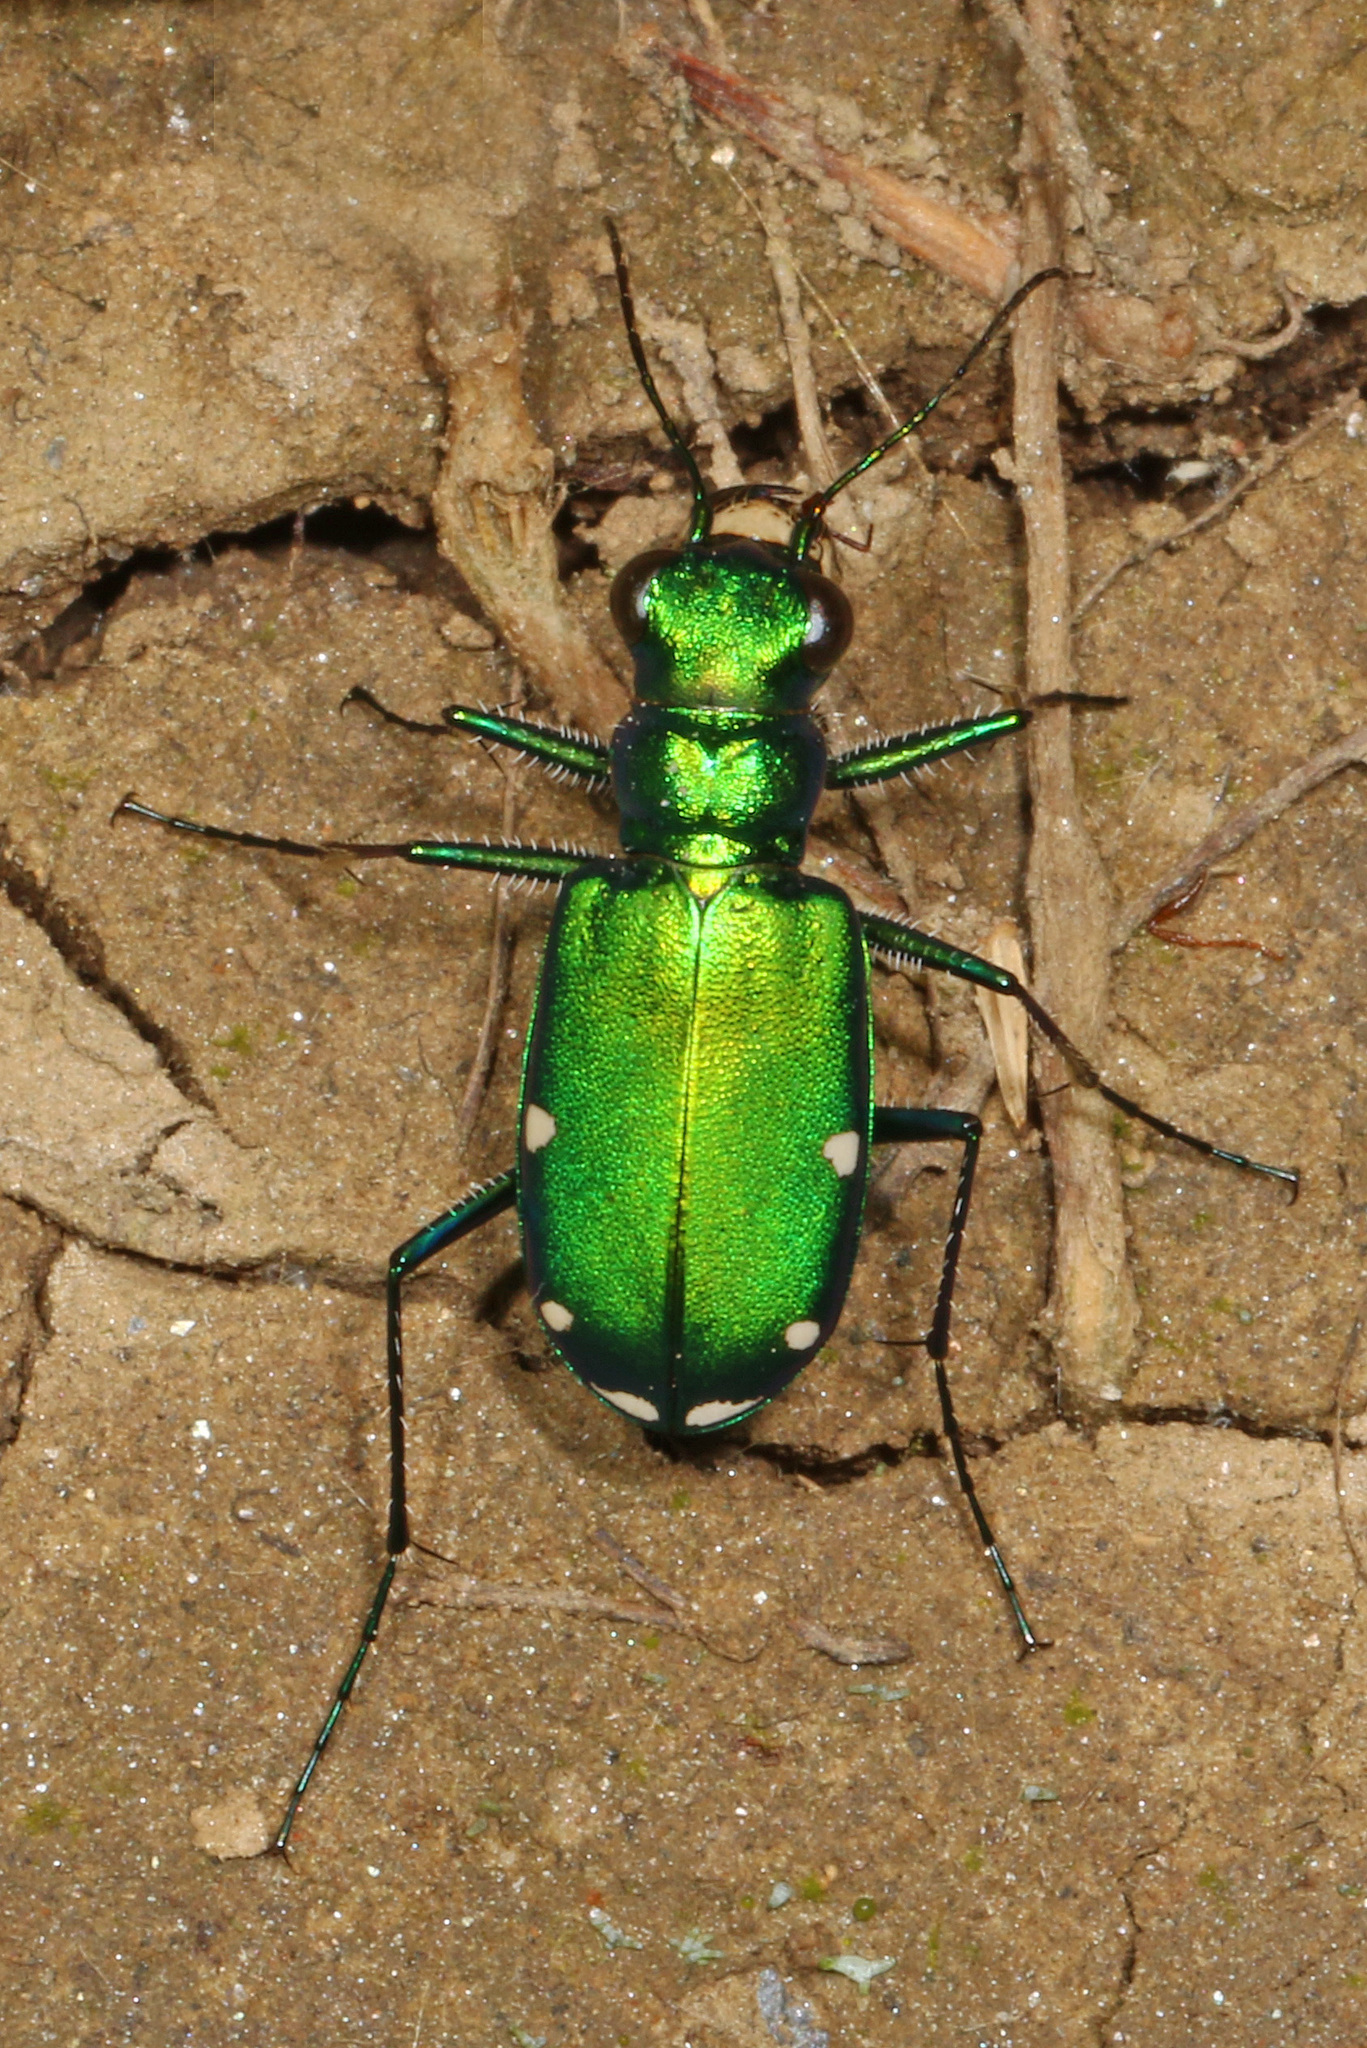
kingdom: Animalia
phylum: Arthropoda
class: Insecta
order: Coleoptera
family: Carabidae
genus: Cicindela
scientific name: Cicindela sexguttata
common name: Six-spotted tiger beetle
